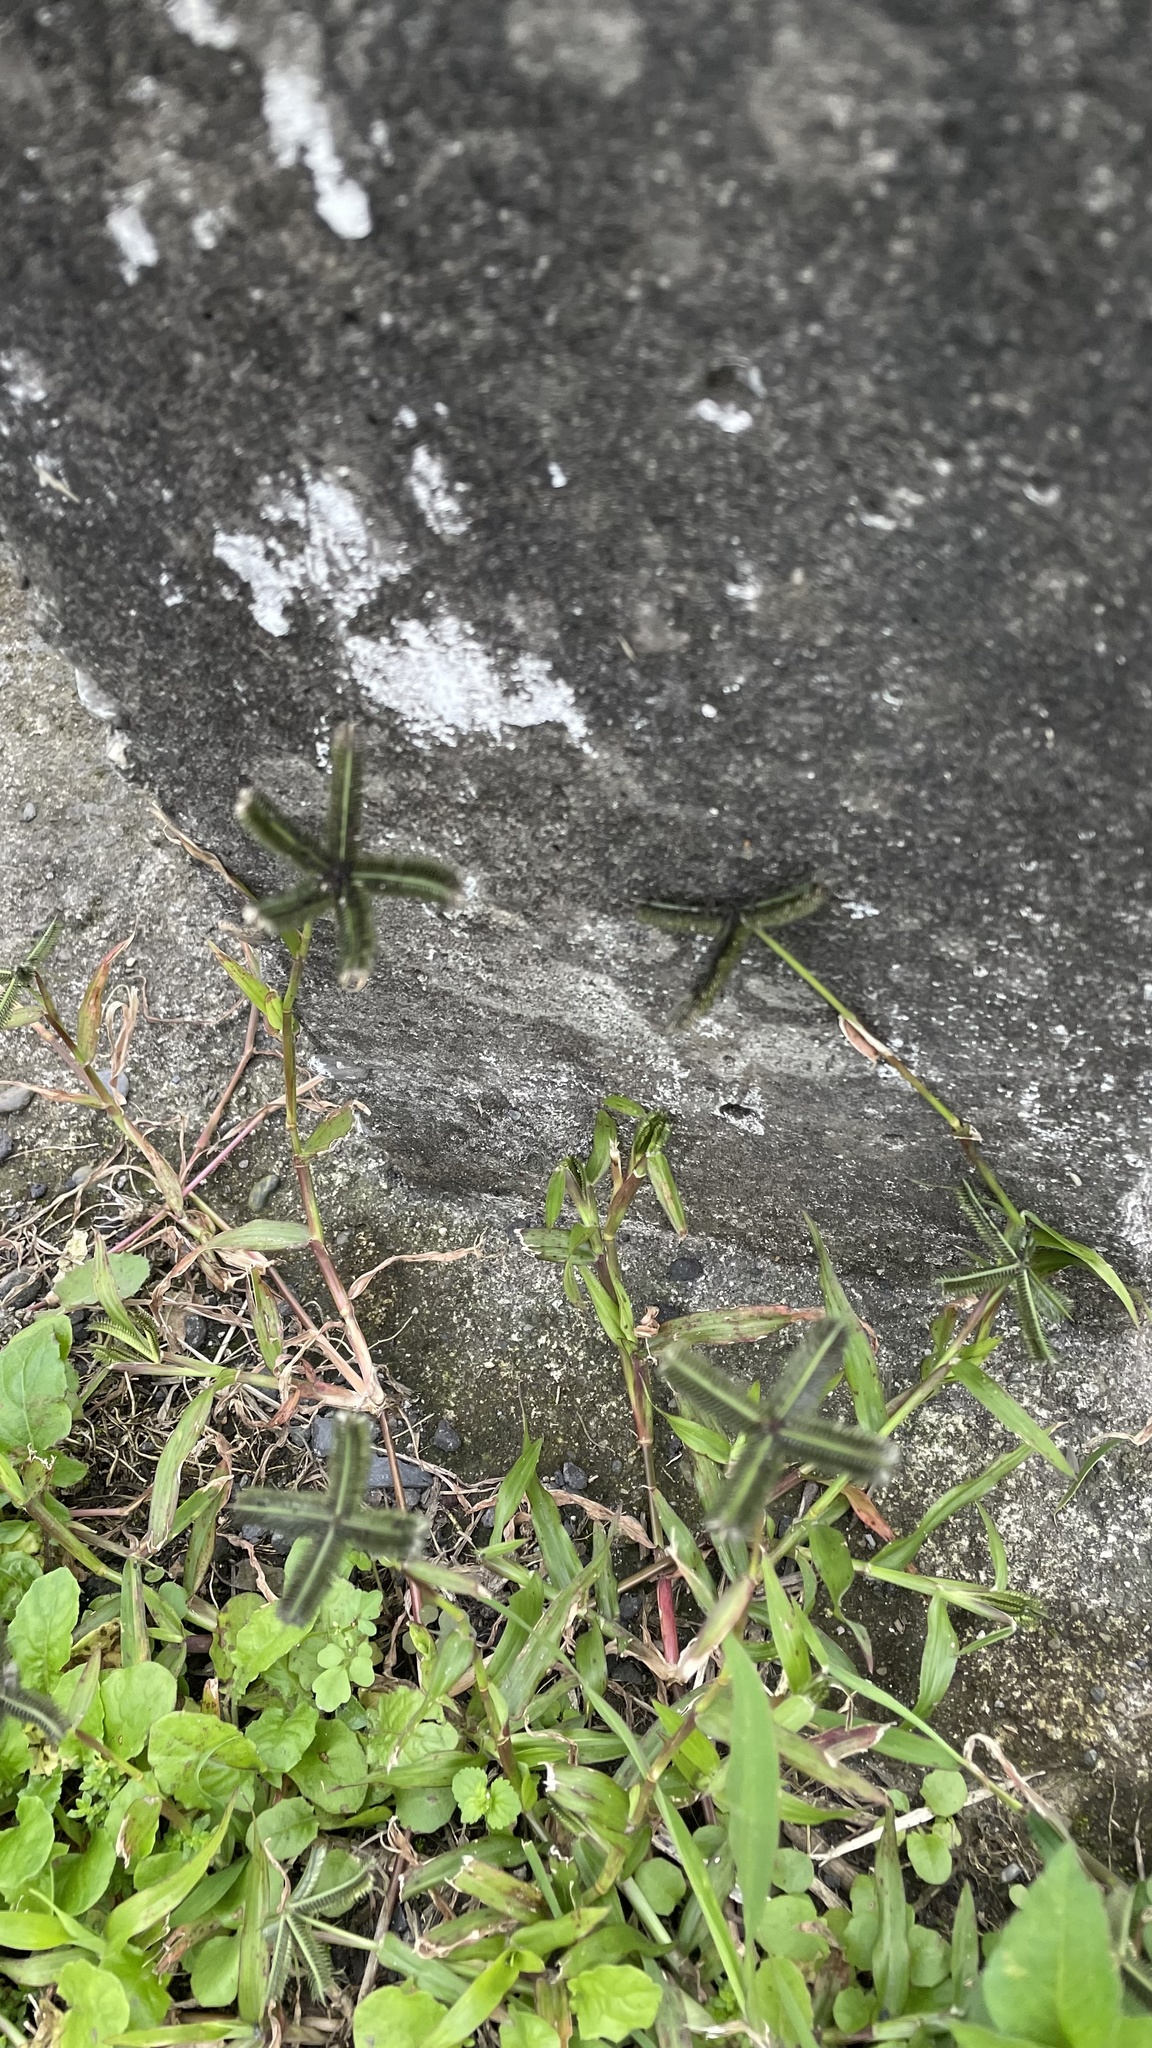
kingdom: Plantae
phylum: Tracheophyta
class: Liliopsida
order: Poales
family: Poaceae
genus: Dactyloctenium
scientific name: Dactyloctenium aegyptium
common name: Egyptian grass
